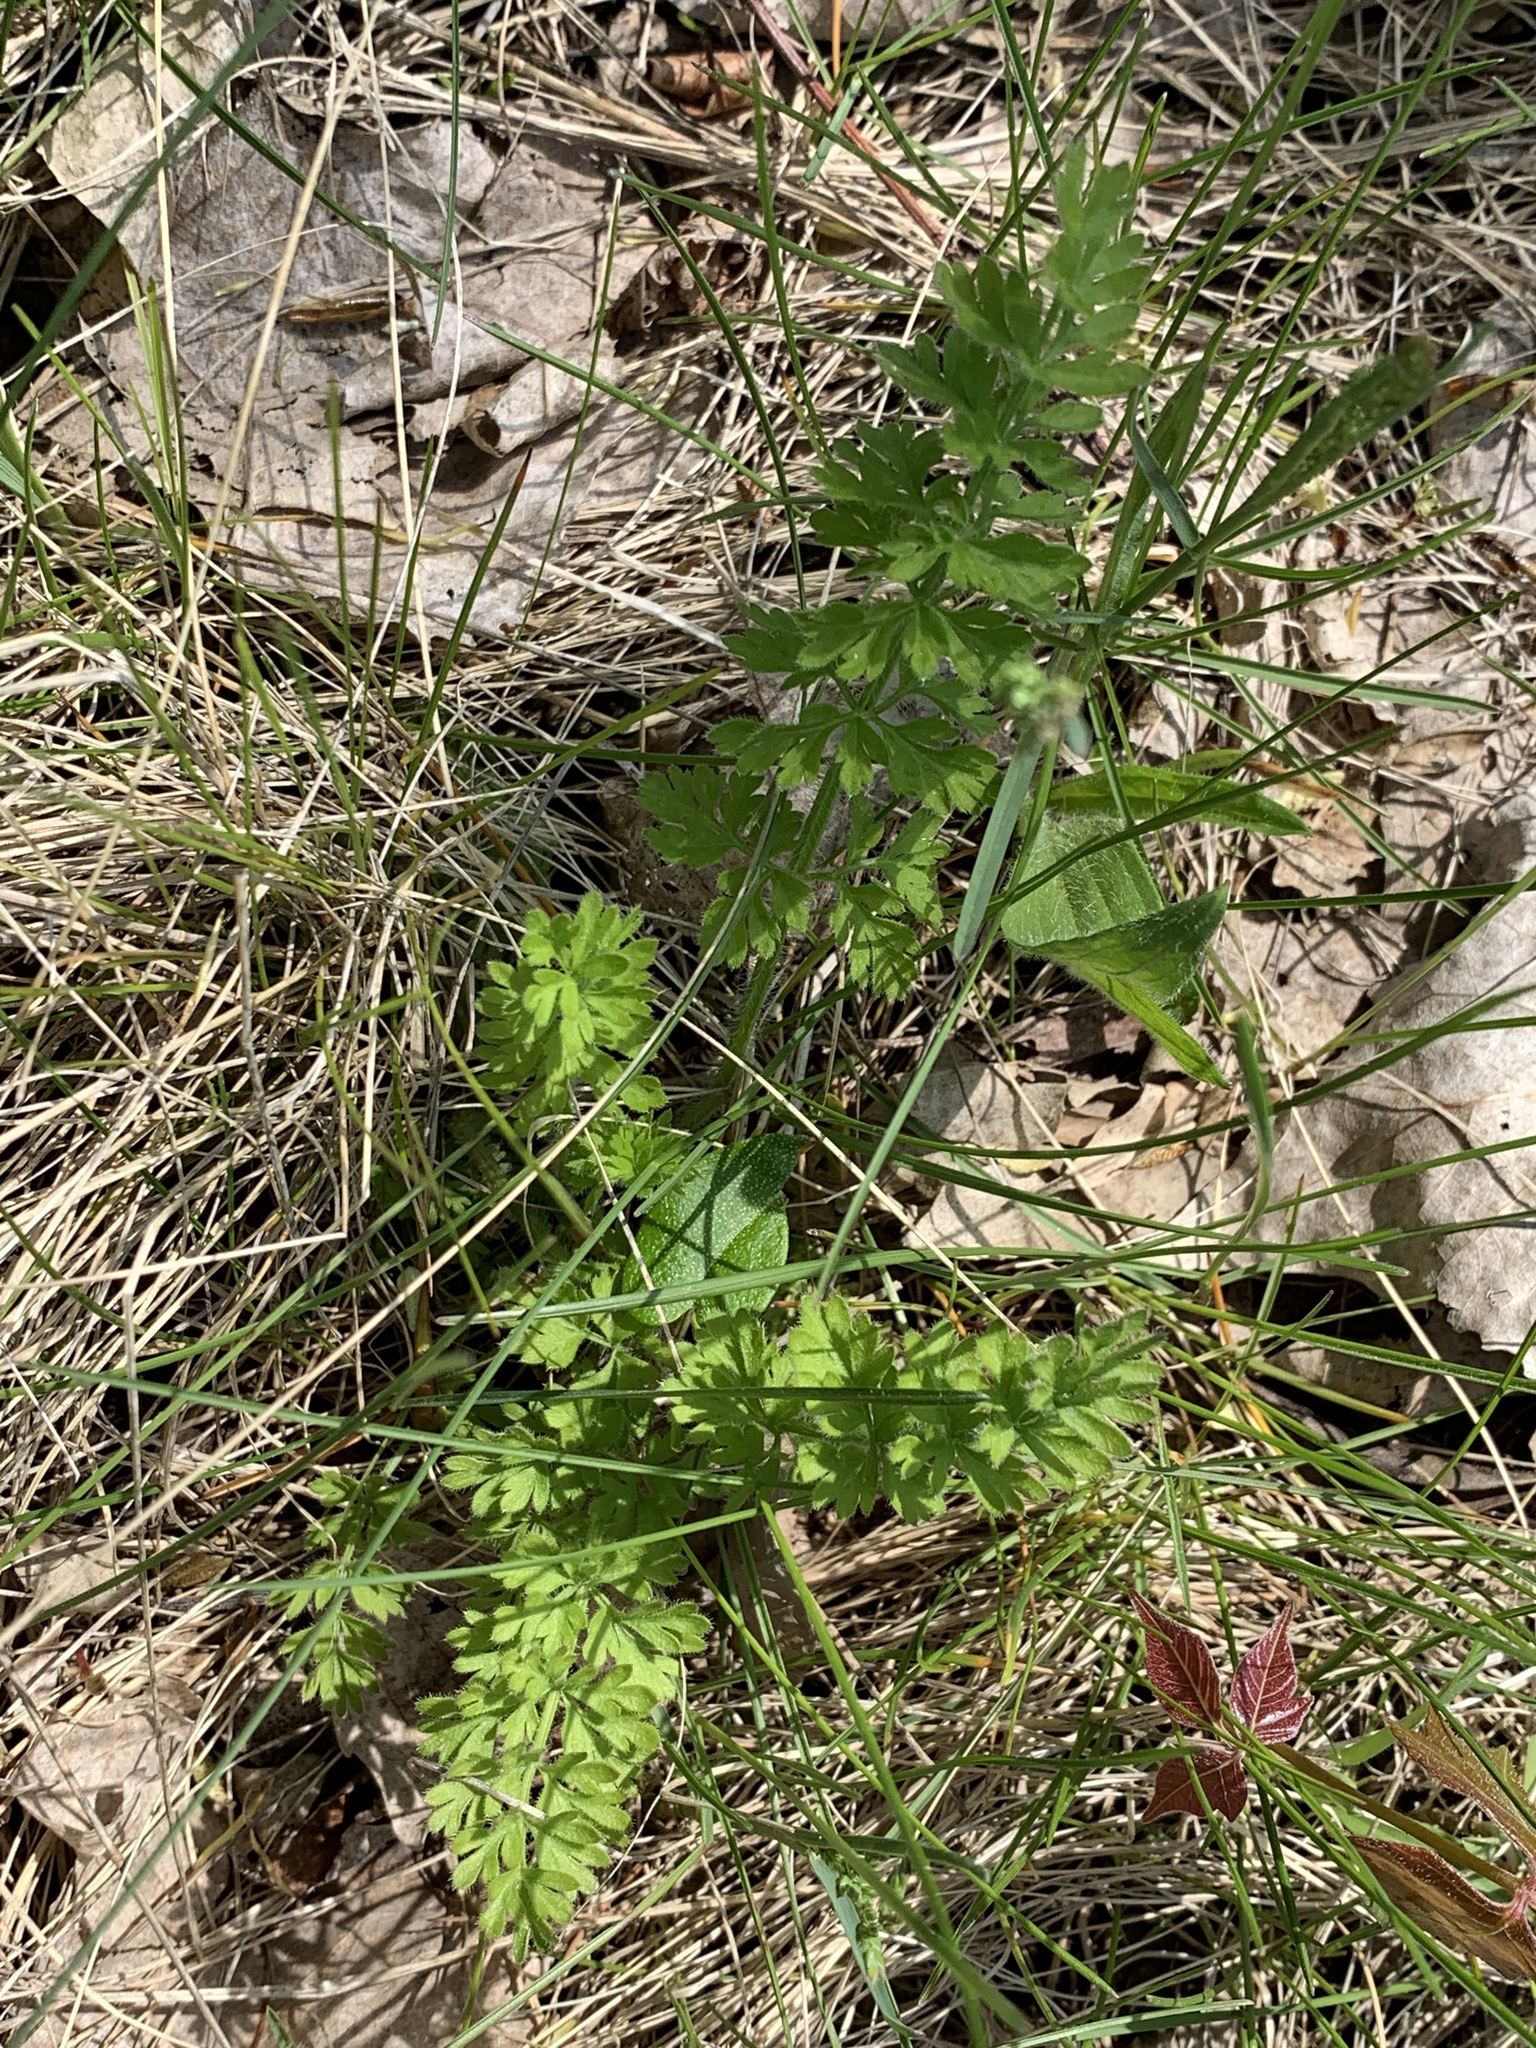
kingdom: Plantae
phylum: Tracheophyta
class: Magnoliopsida
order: Apiales
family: Apiaceae
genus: Daucus
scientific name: Daucus carota
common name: Wild carrot
